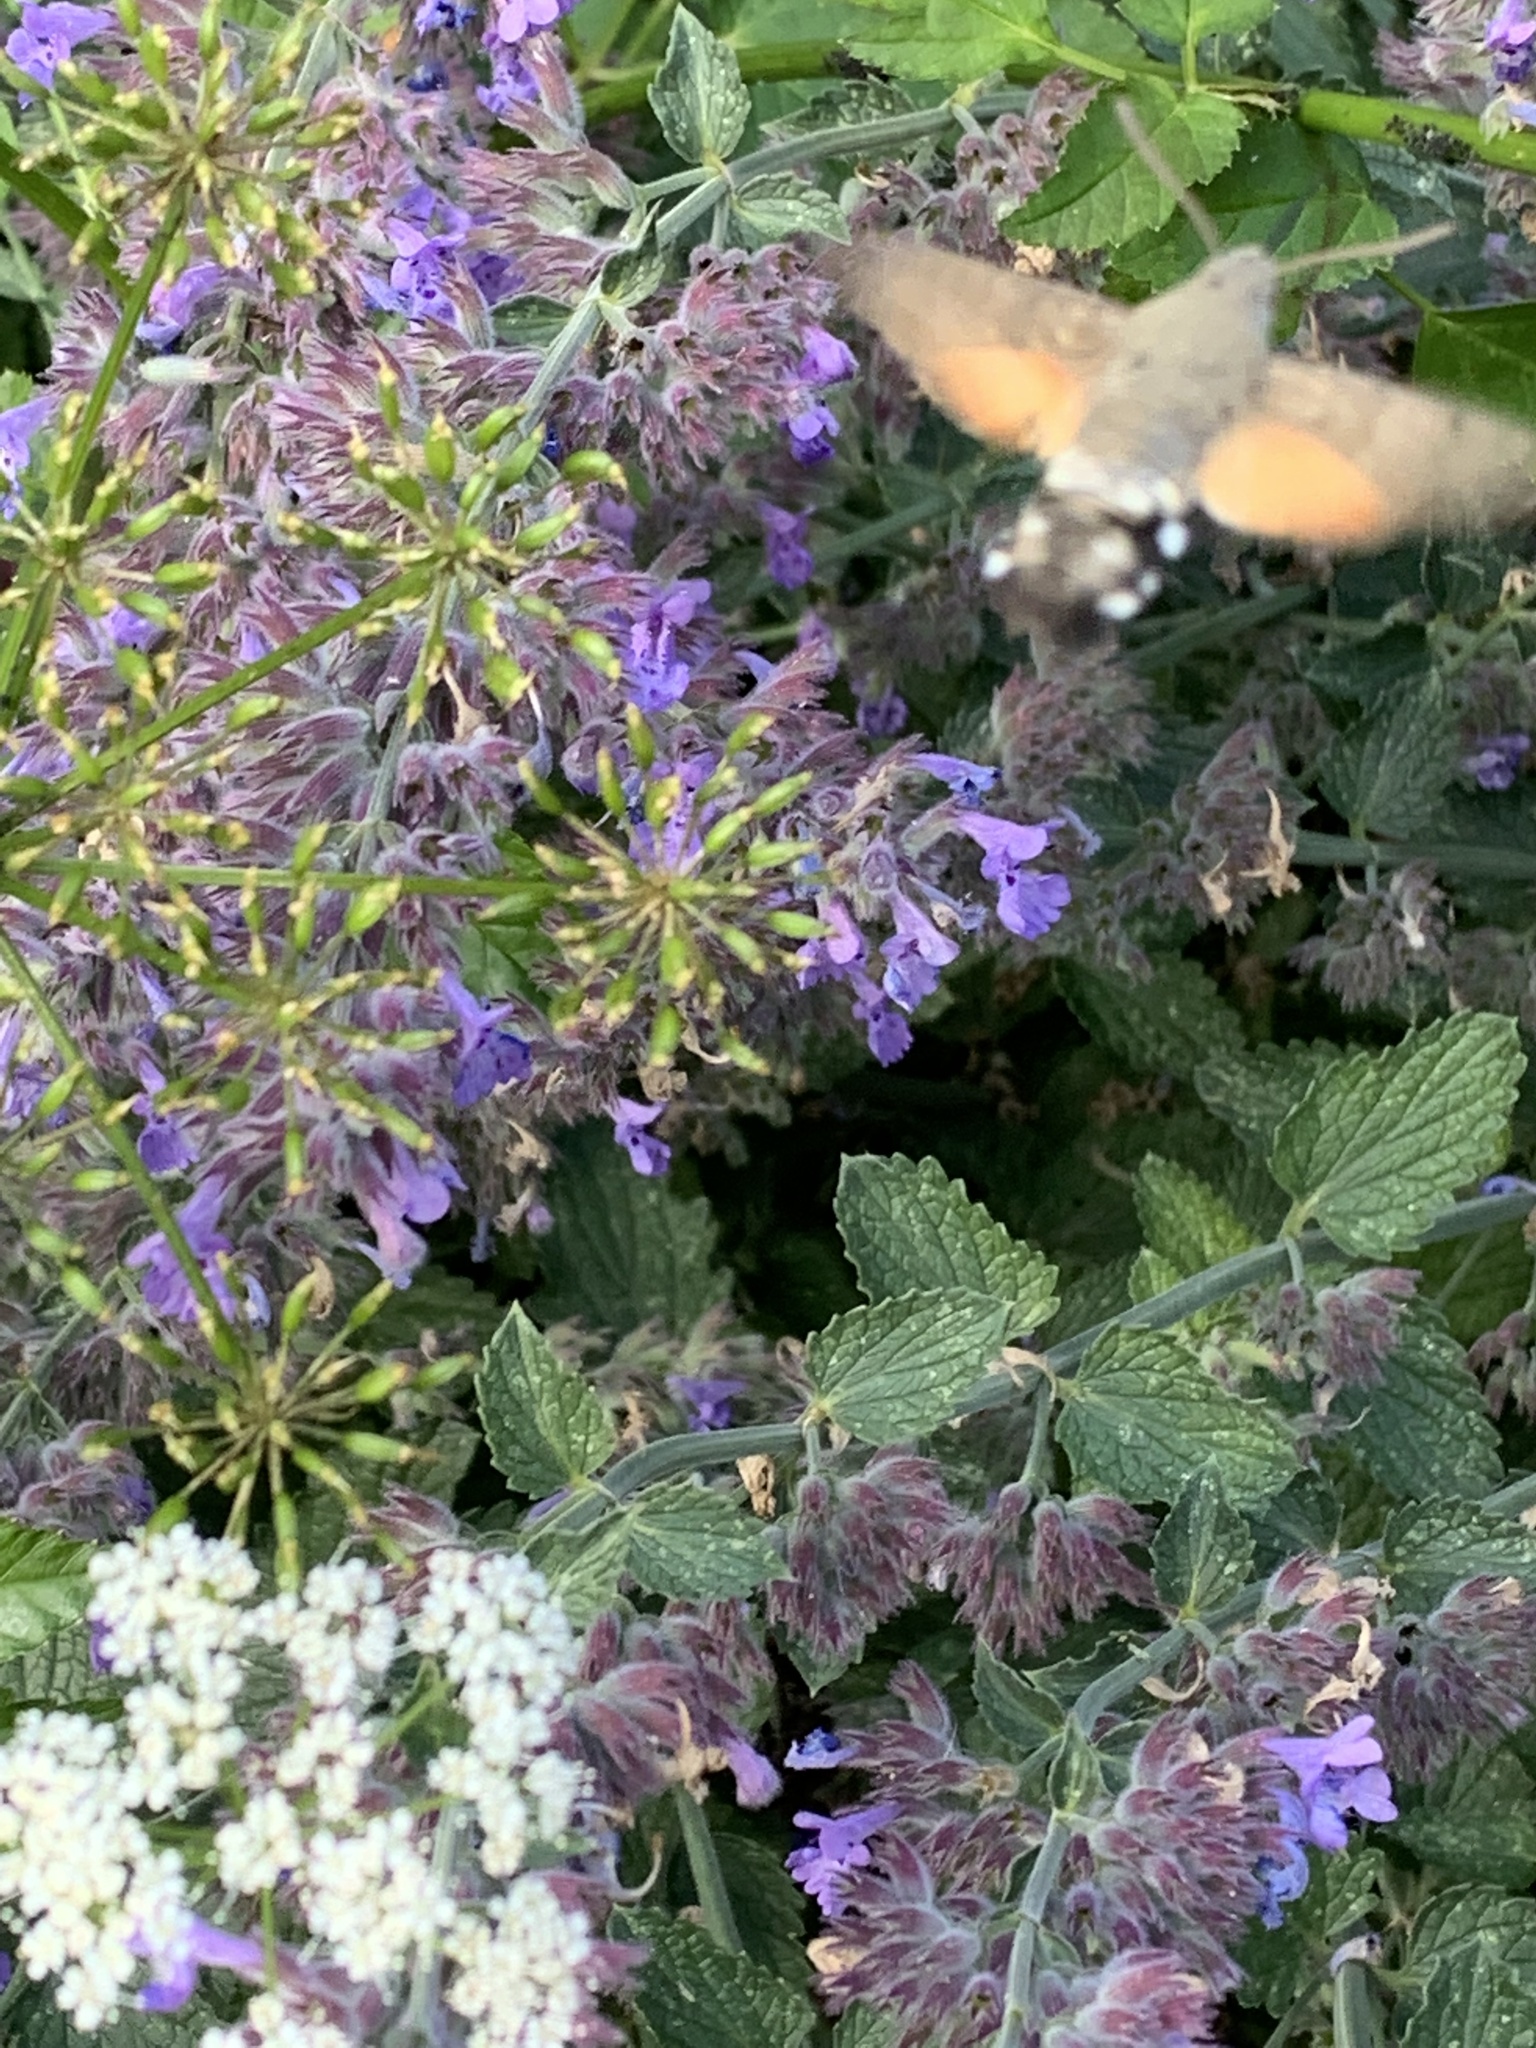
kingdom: Animalia
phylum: Arthropoda
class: Insecta
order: Lepidoptera
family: Sphingidae
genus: Macroglossum
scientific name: Macroglossum stellatarum
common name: Humming-bird hawk-moth
